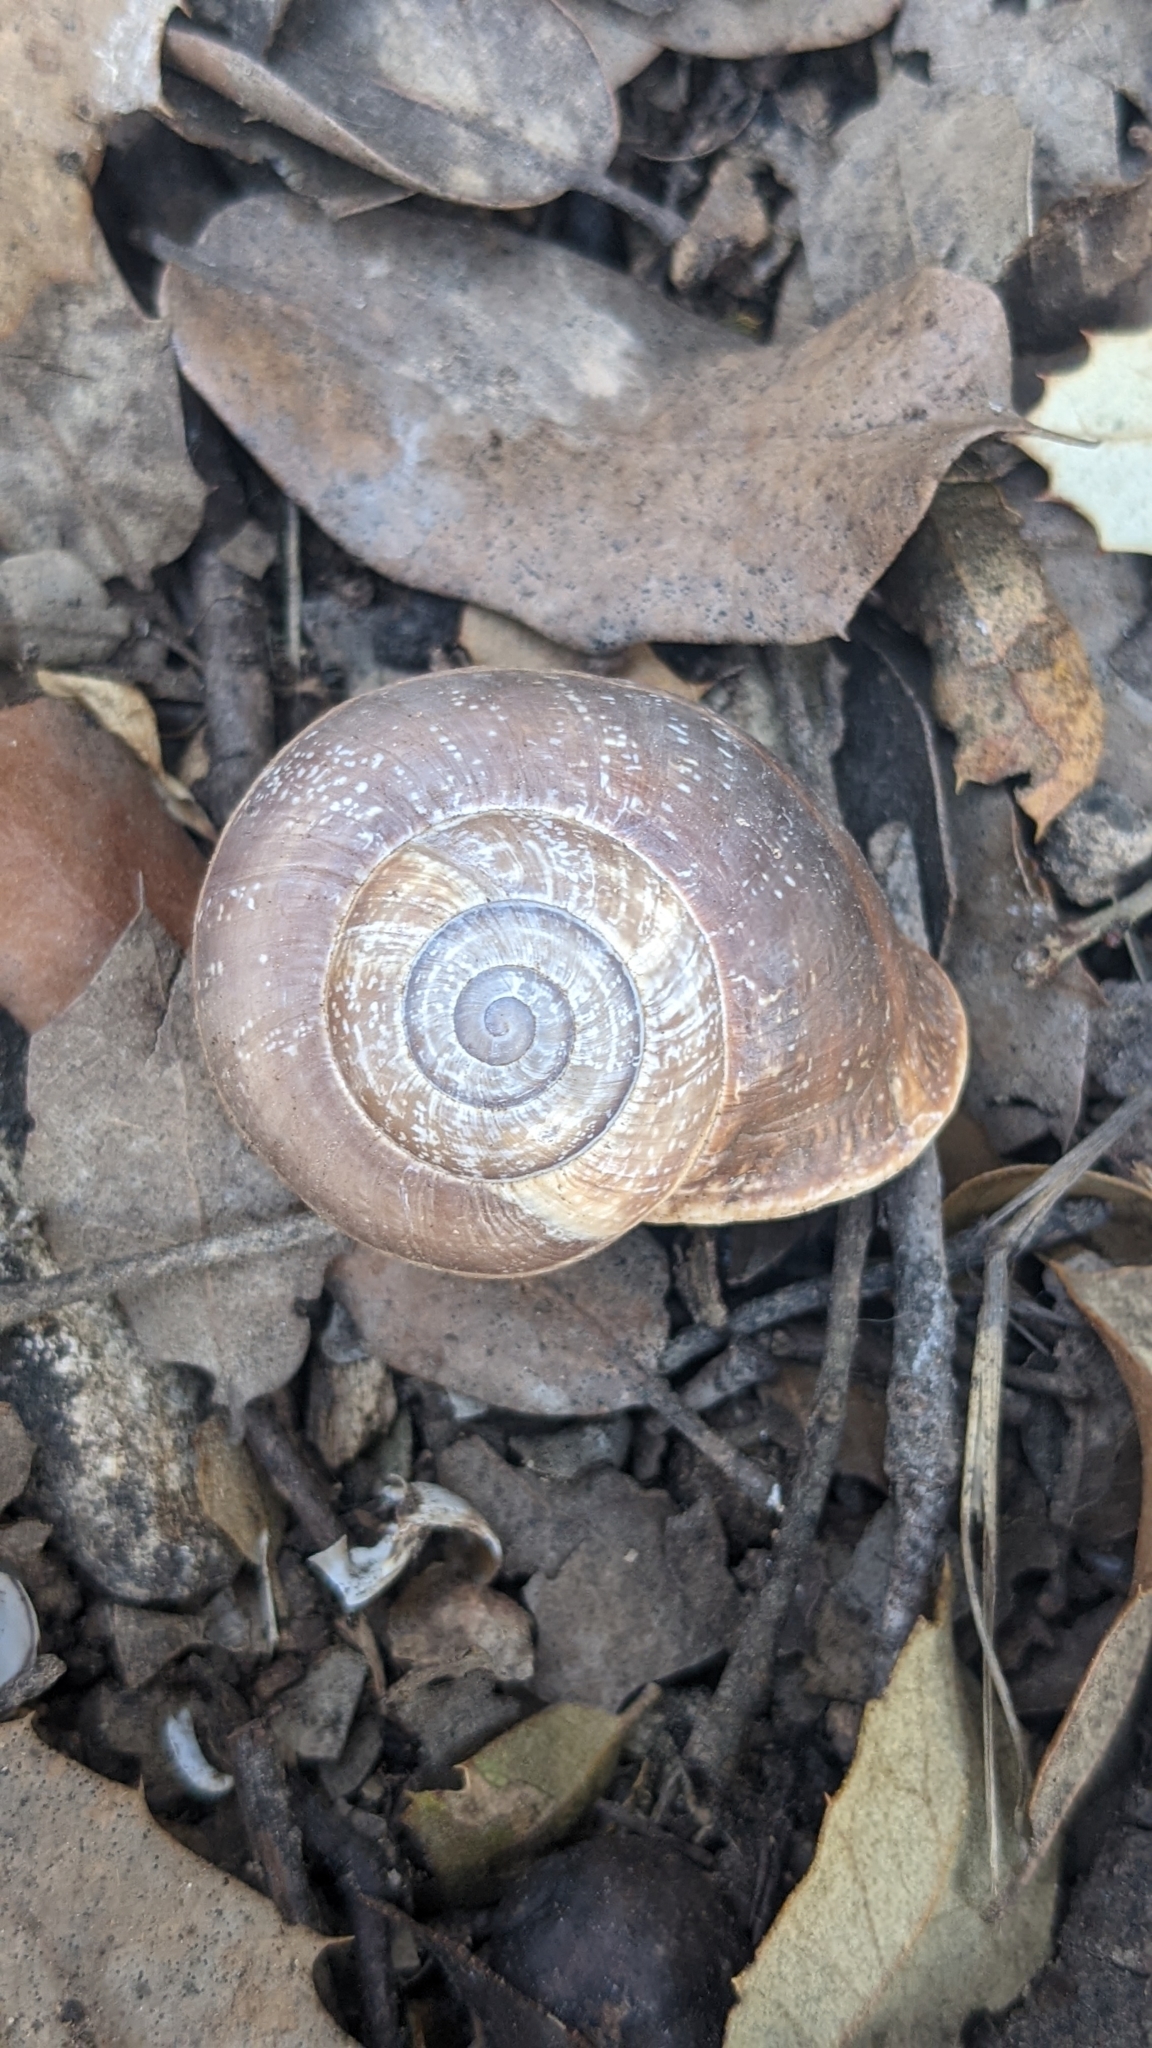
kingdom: Animalia
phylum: Mollusca
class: Gastropoda
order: Stylommatophora
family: Helicidae
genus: Otala
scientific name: Otala punctata
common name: Milk snail
